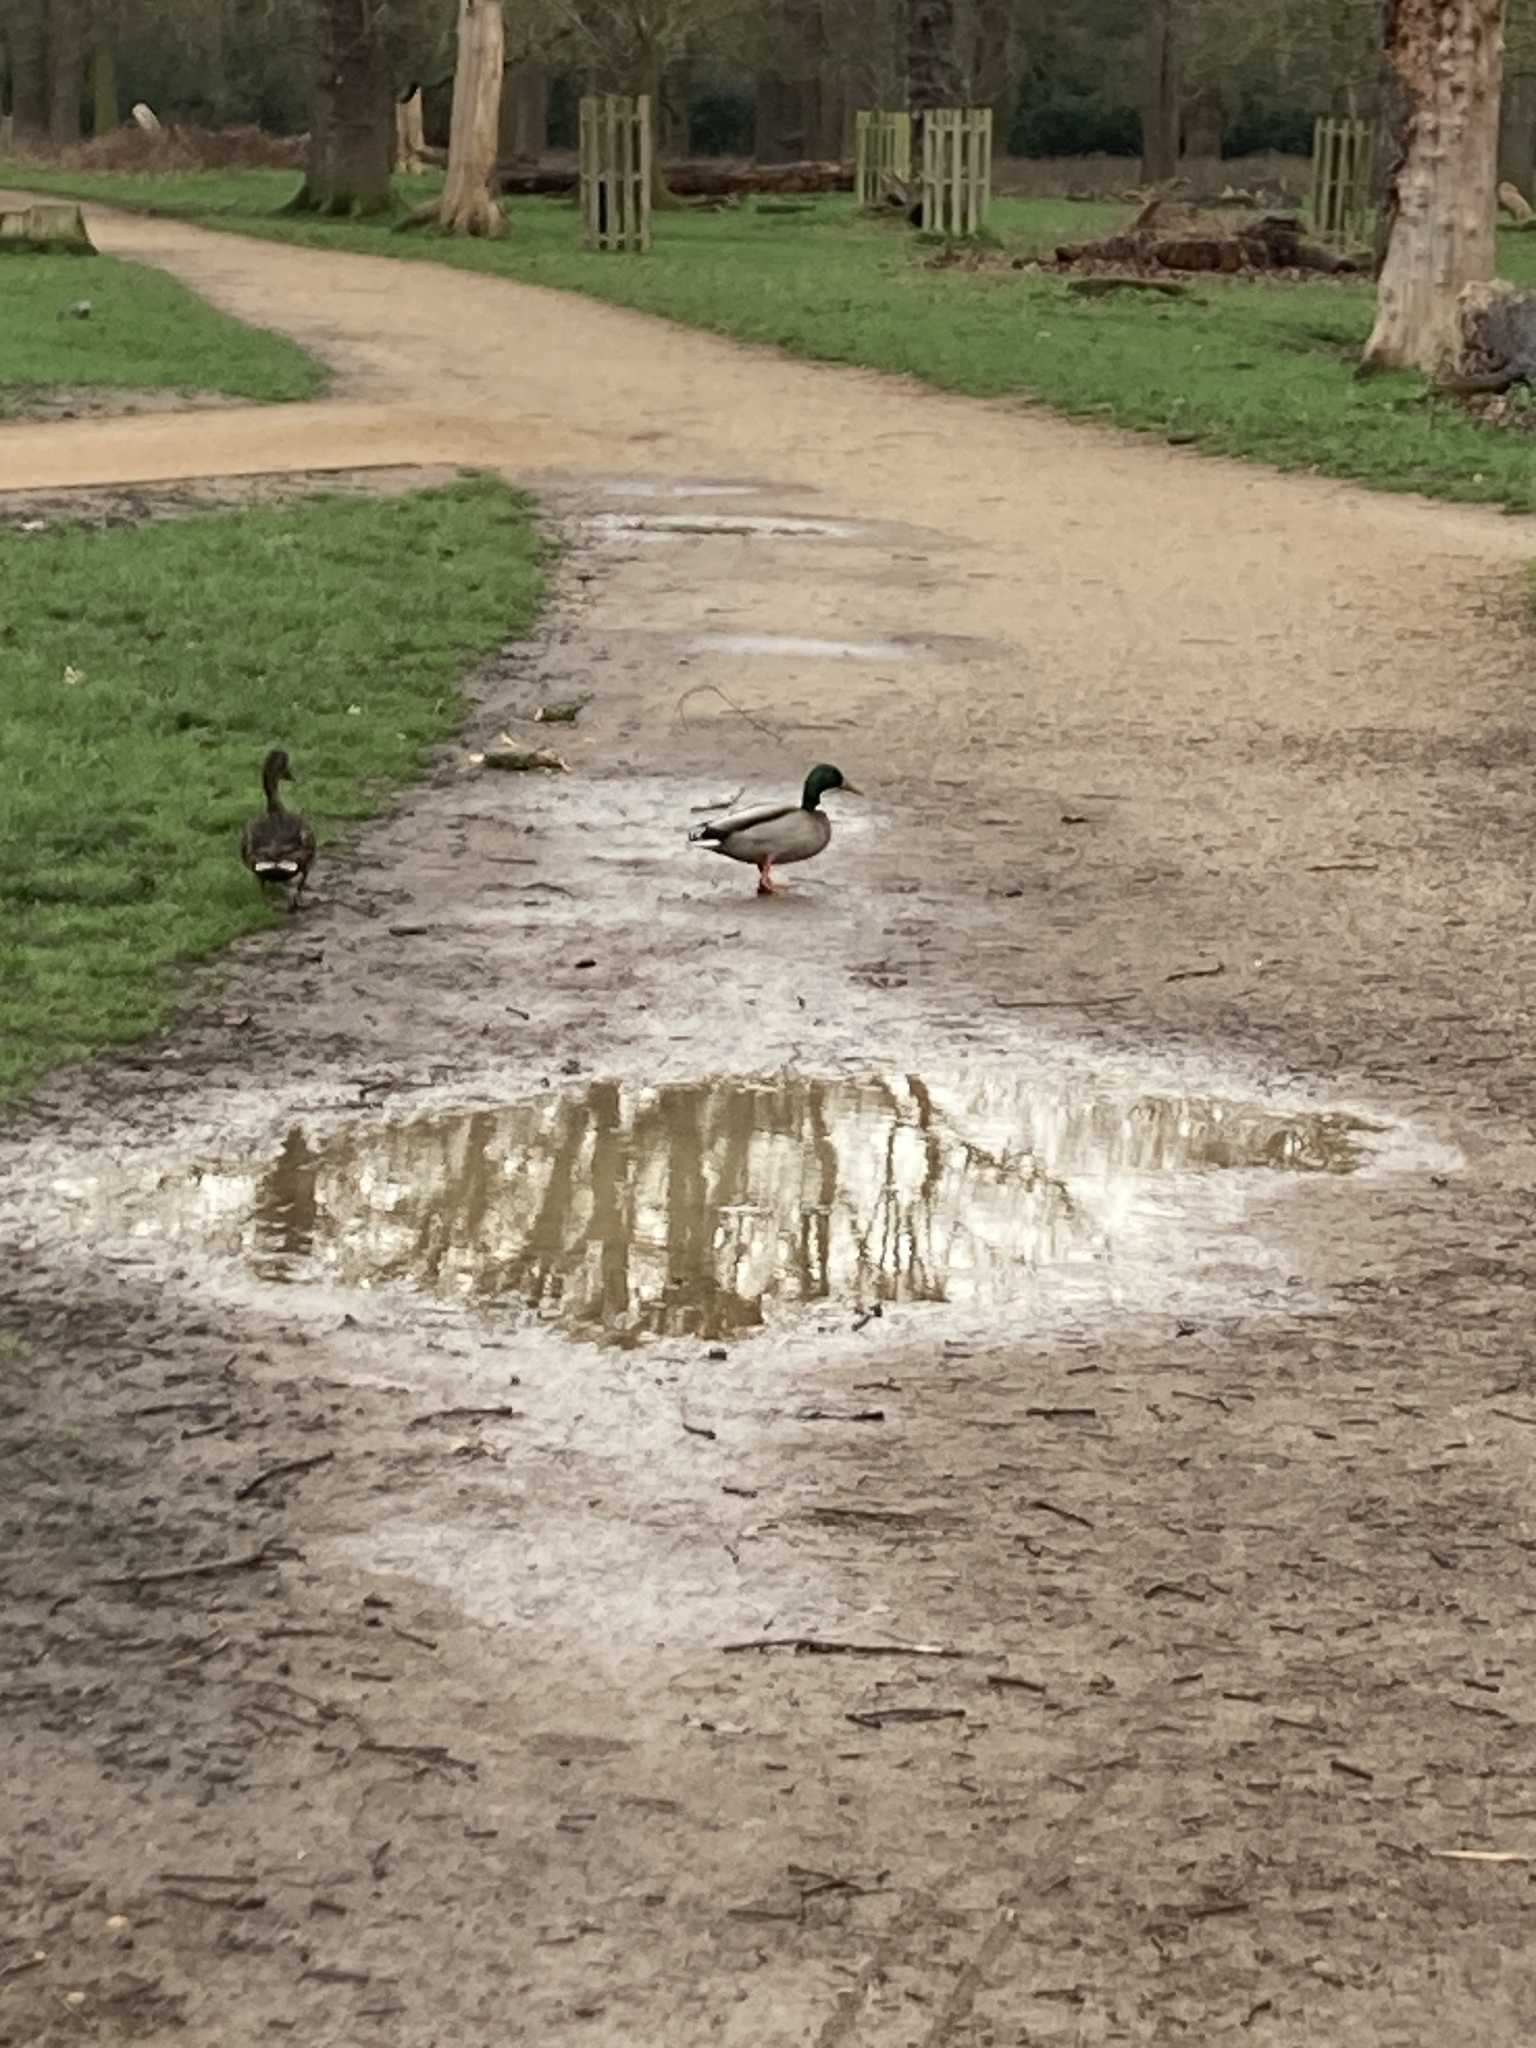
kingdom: Animalia
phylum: Chordata
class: Aves
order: Anseriformes
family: Anatidae
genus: Anas
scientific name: Anas platyrhynchos
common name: Mallard
